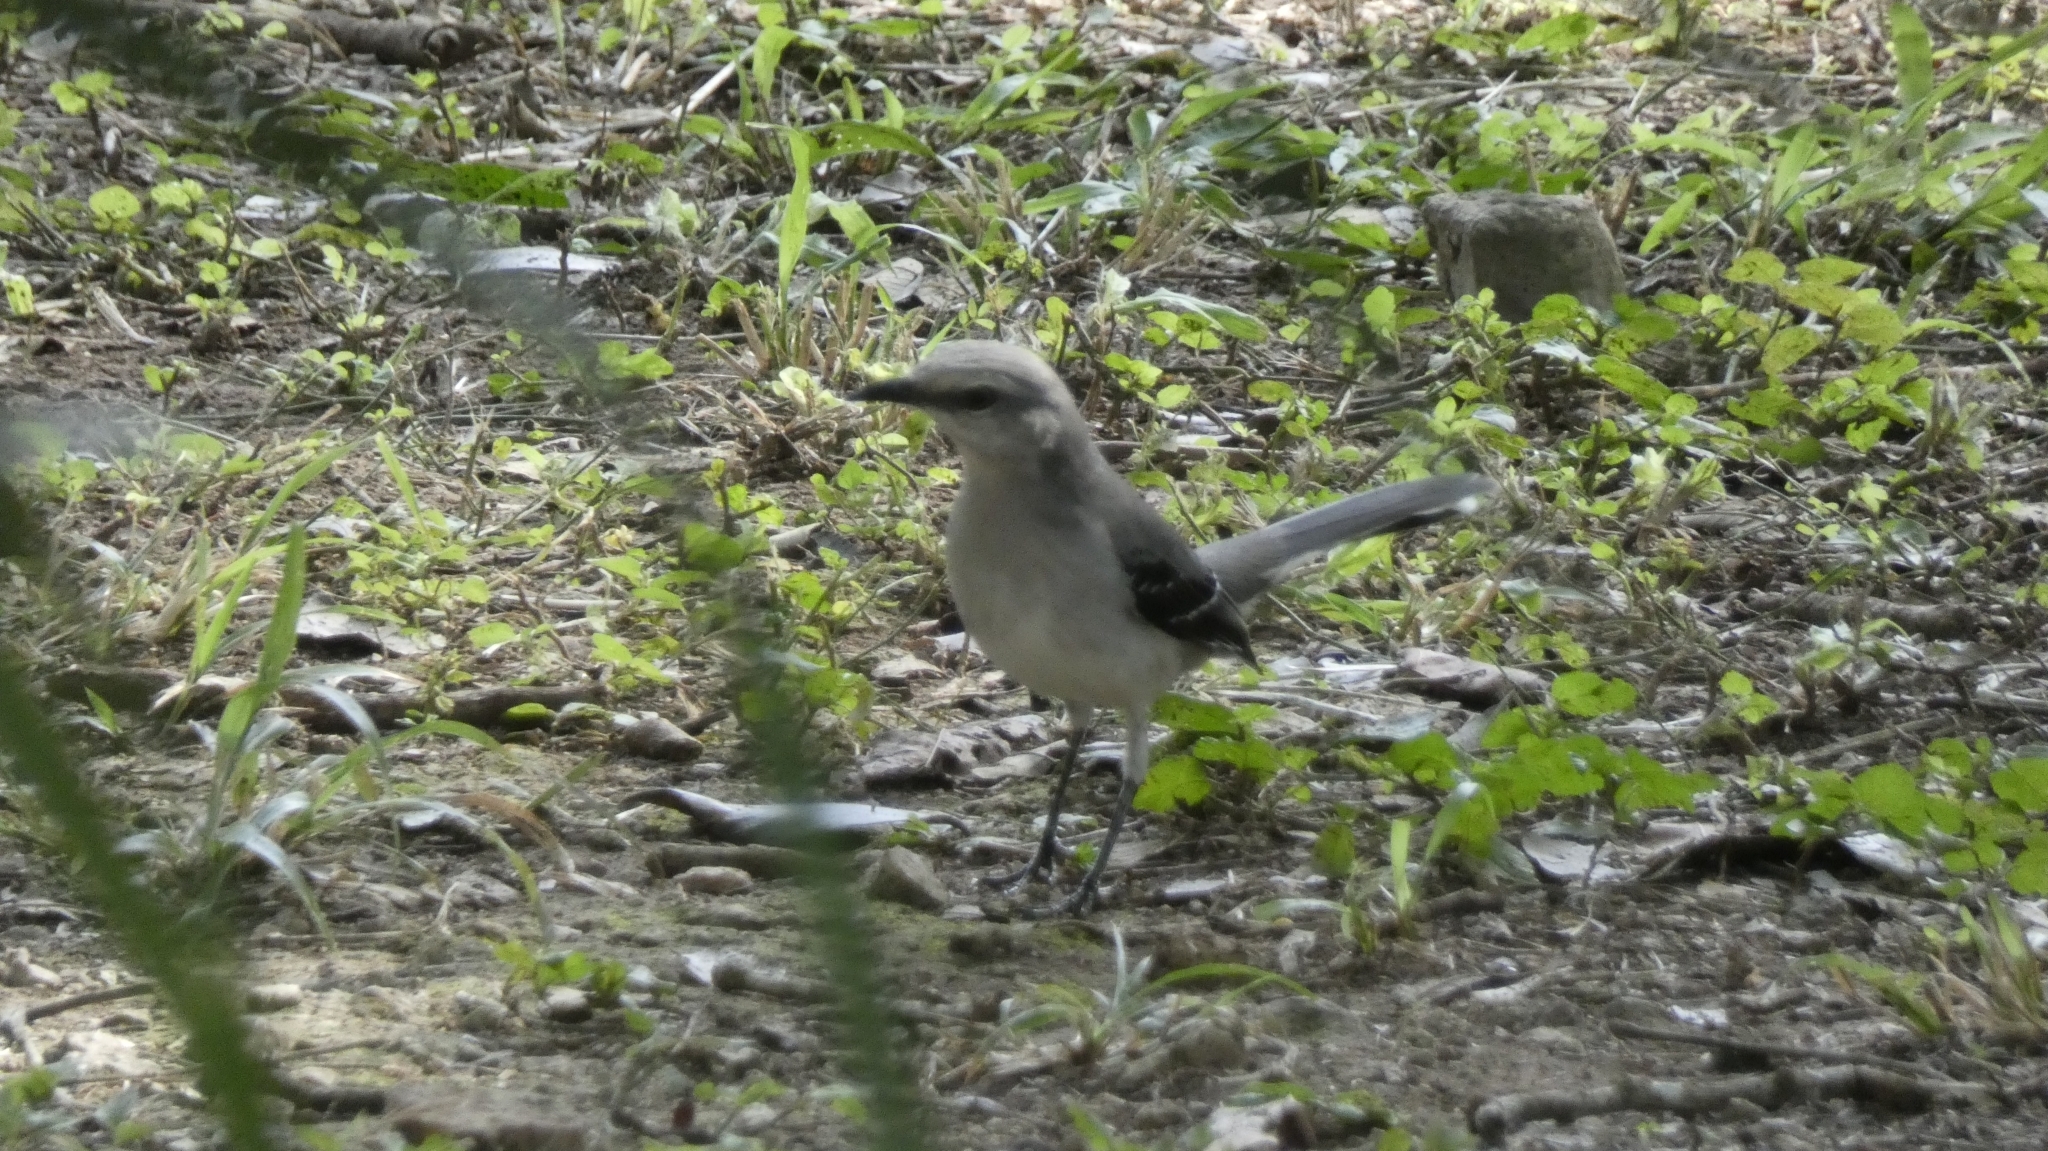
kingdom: Animalia
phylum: Chordata
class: Aves
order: Passeriformes
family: Mimidae
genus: Mimus
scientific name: Mimus gilvus
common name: Tropical mockingbird
